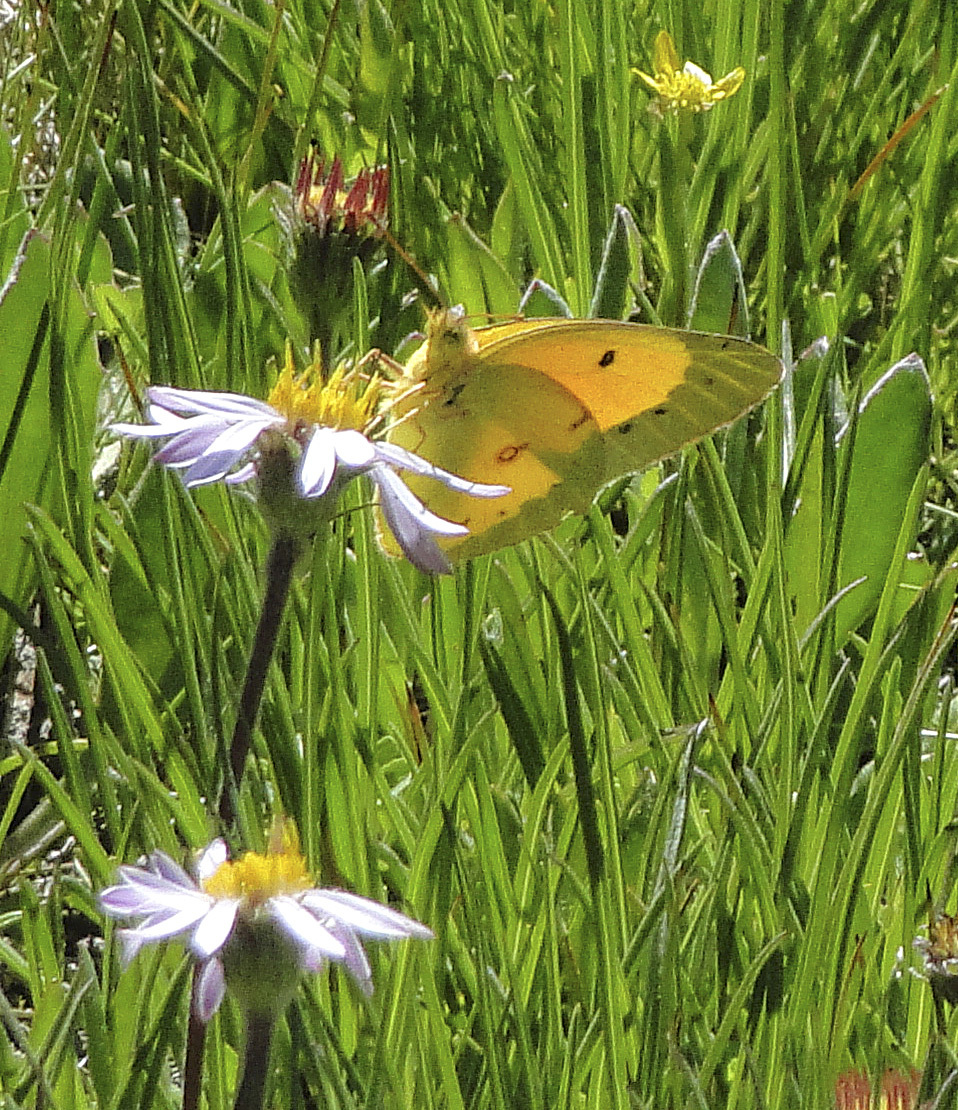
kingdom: Animalia
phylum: Arthropoda
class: Insecta
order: Lepidoptera
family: Pieridae
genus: Colias
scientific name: Colias eurytheme
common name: Alfalfa butterfly
